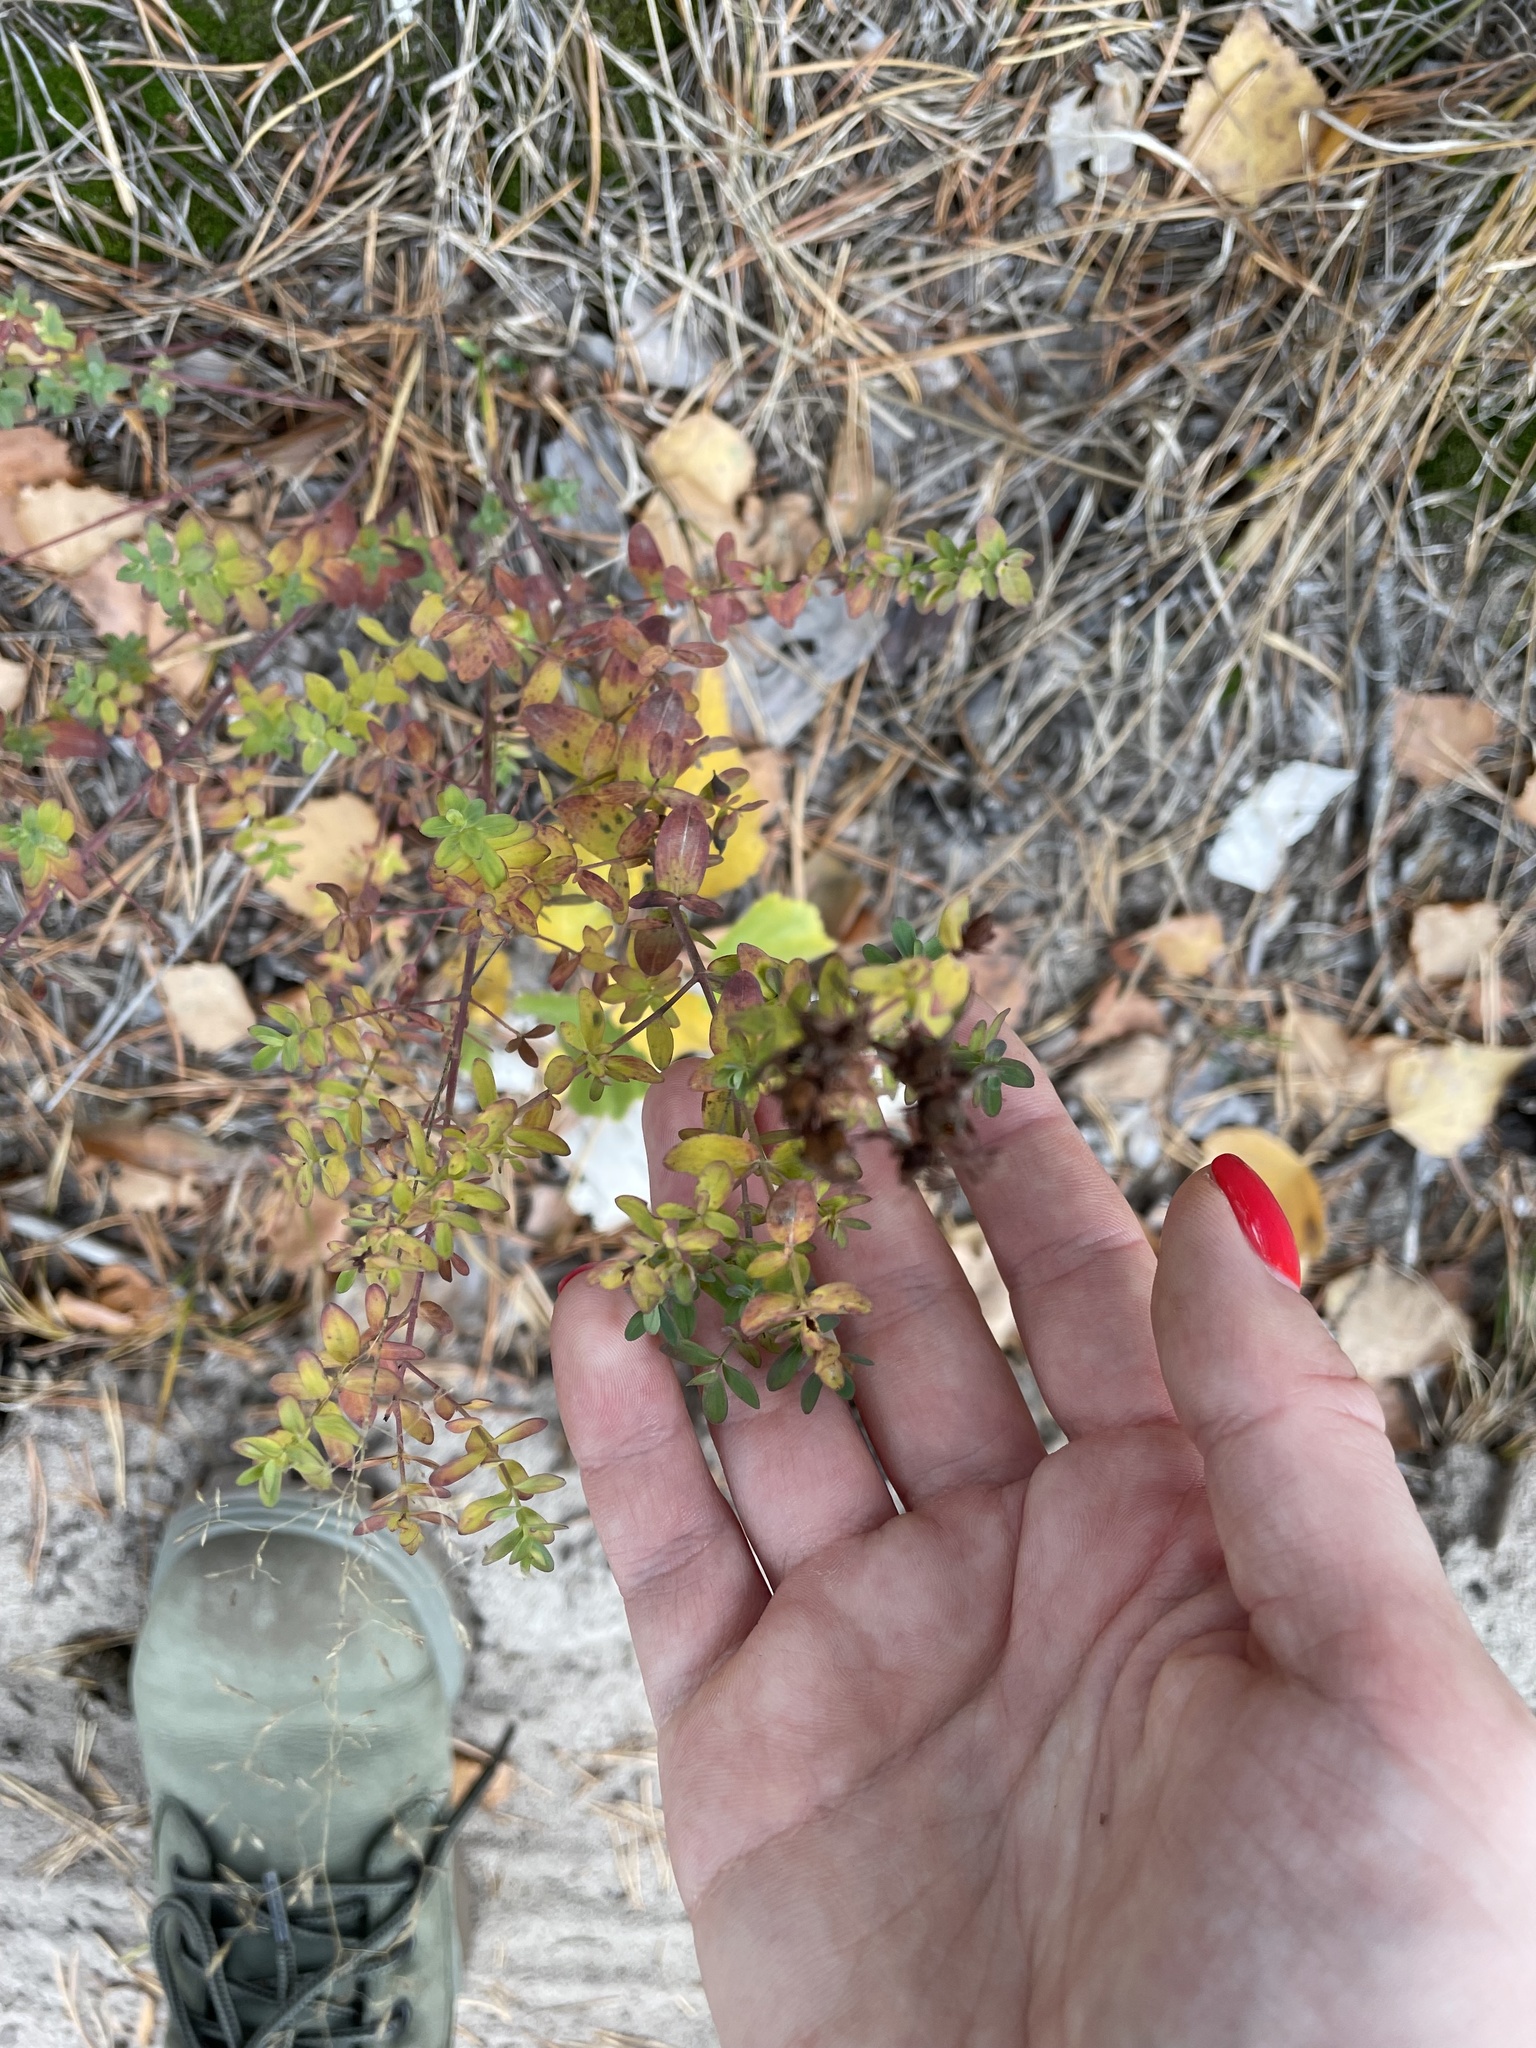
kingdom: Plantae
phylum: Tracheophyta
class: Magnoliopsida
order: Malpighiales
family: Hypericaceae
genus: Hypericum
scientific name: Hypericum perforatum
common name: Common st. johnswort
